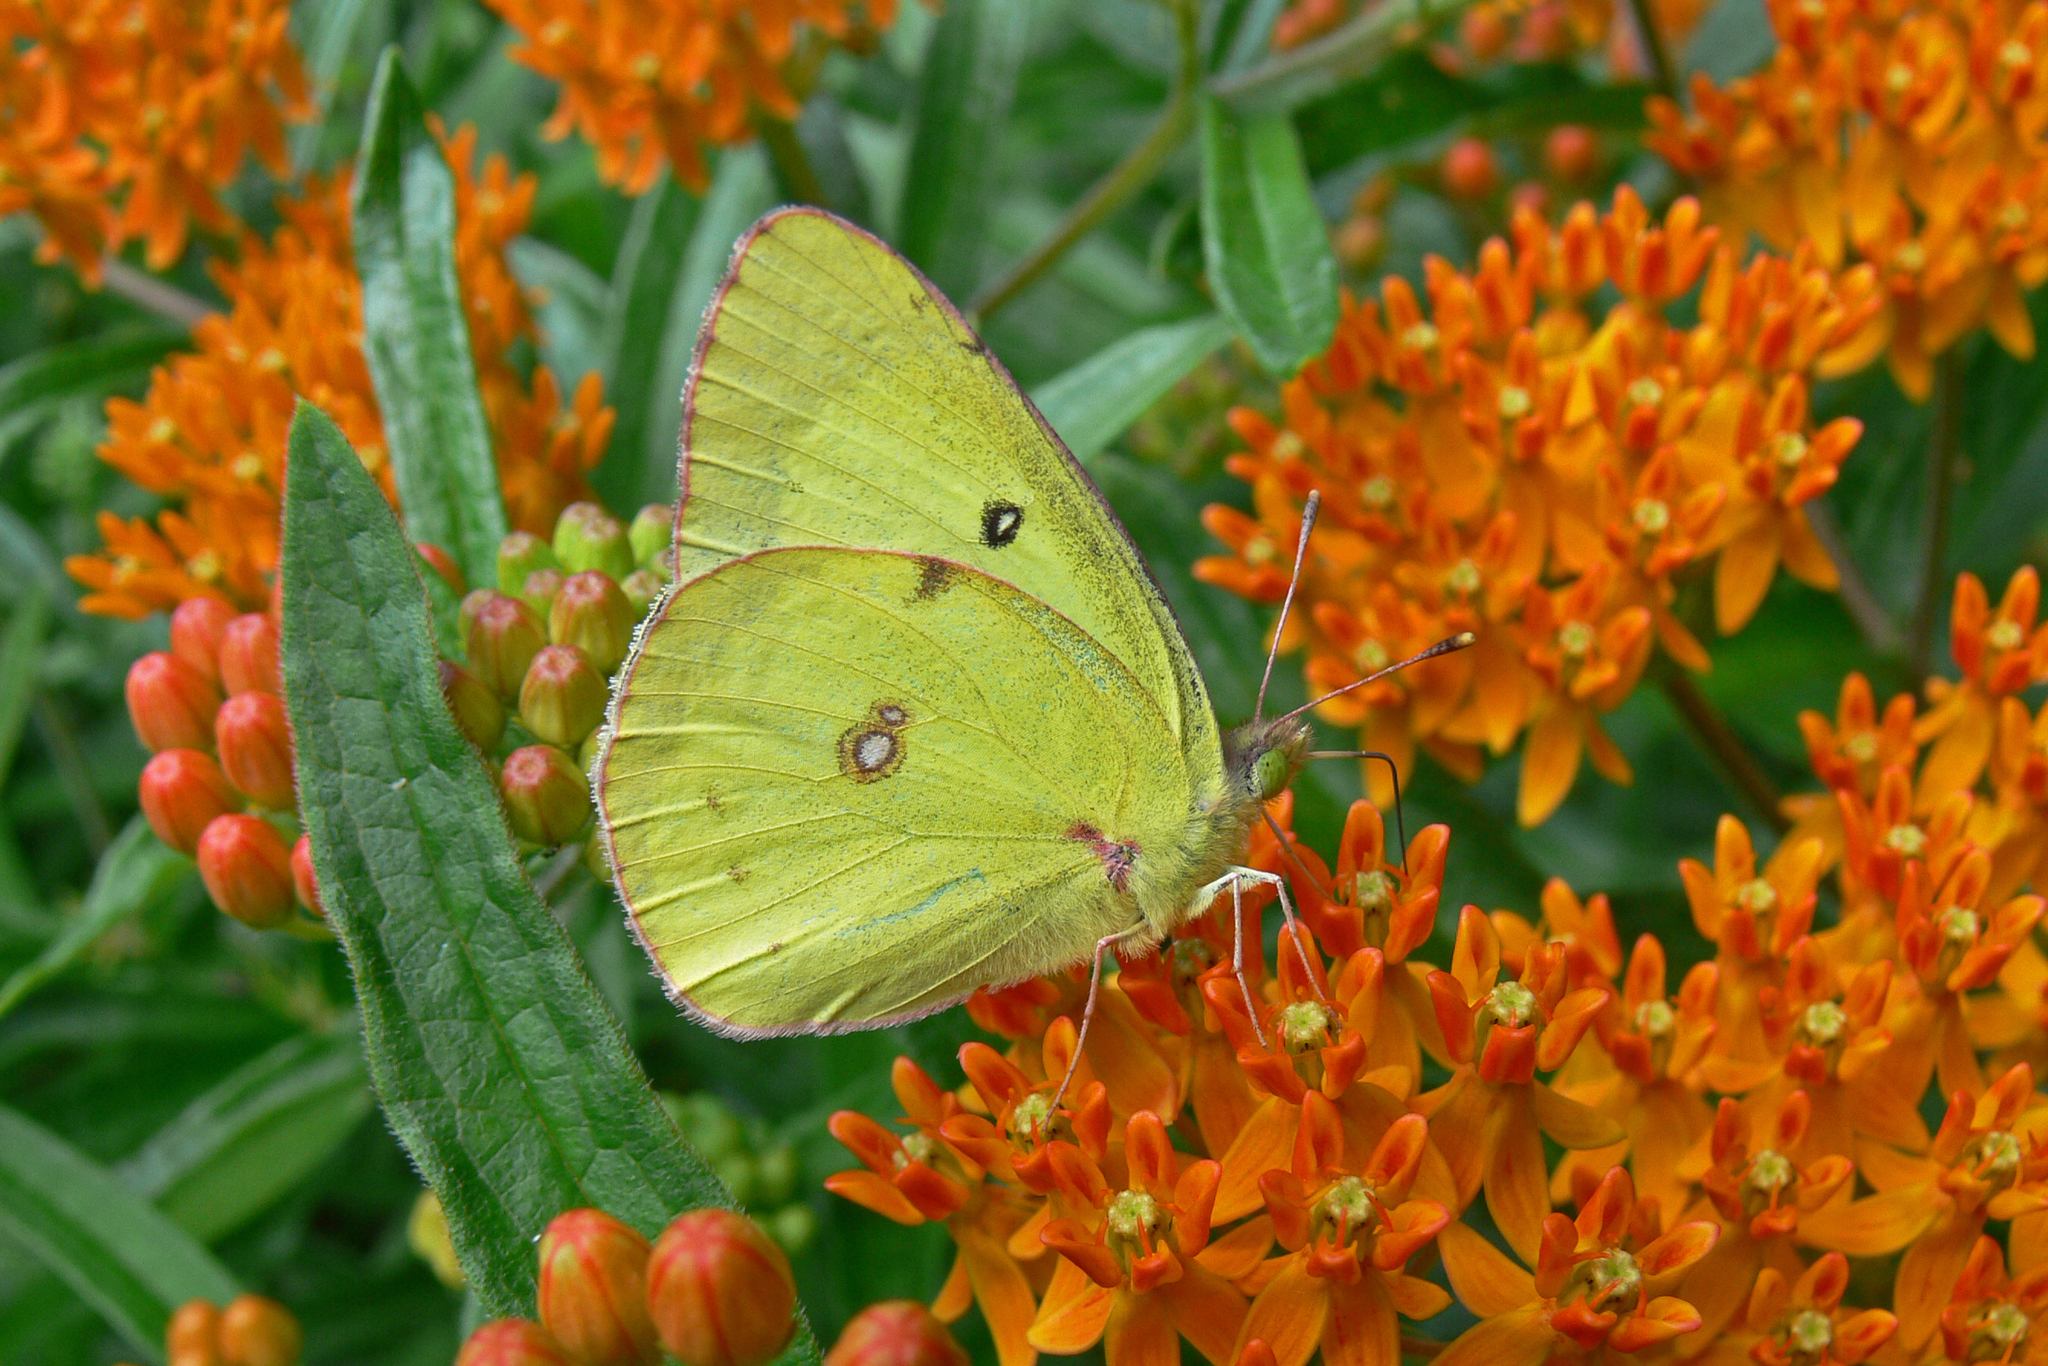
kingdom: Animalia
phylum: Arthropoda
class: Insecta
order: Lepidoptera
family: Pieridae
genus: Colias
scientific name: Colias philodice
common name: Clouded sulphur
